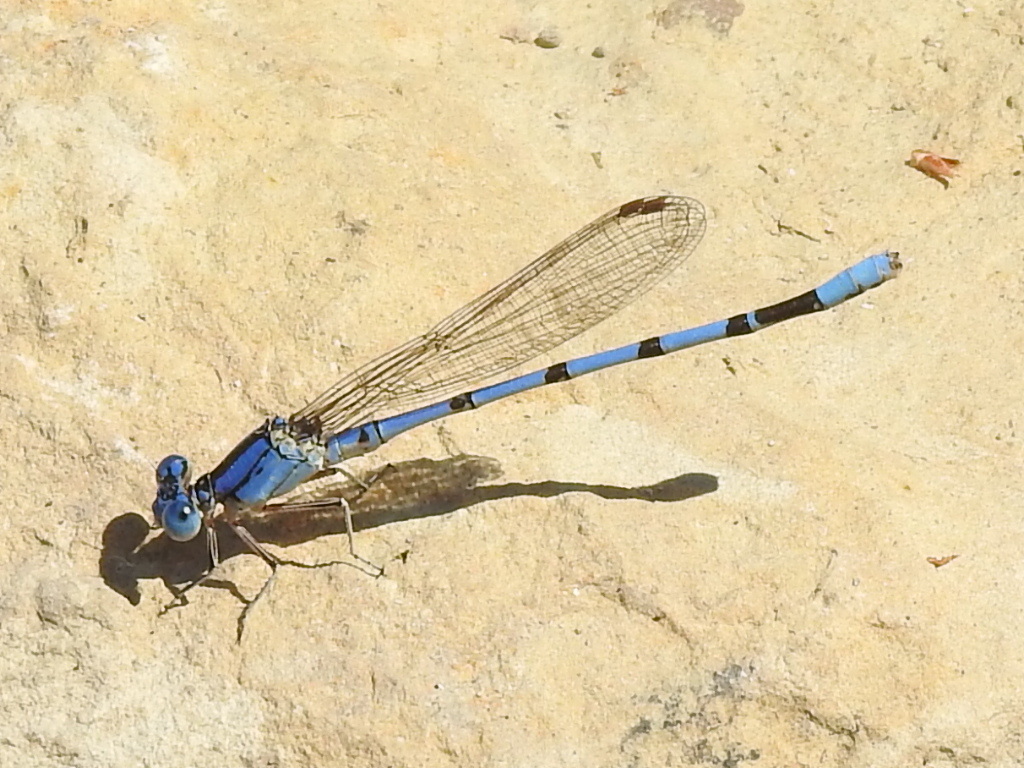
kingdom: Animalia
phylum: Arthropoda
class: Insecta
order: Odonata
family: Coenagrionidae
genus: Argia
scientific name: Argia nahuana
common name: Aztec dancer
